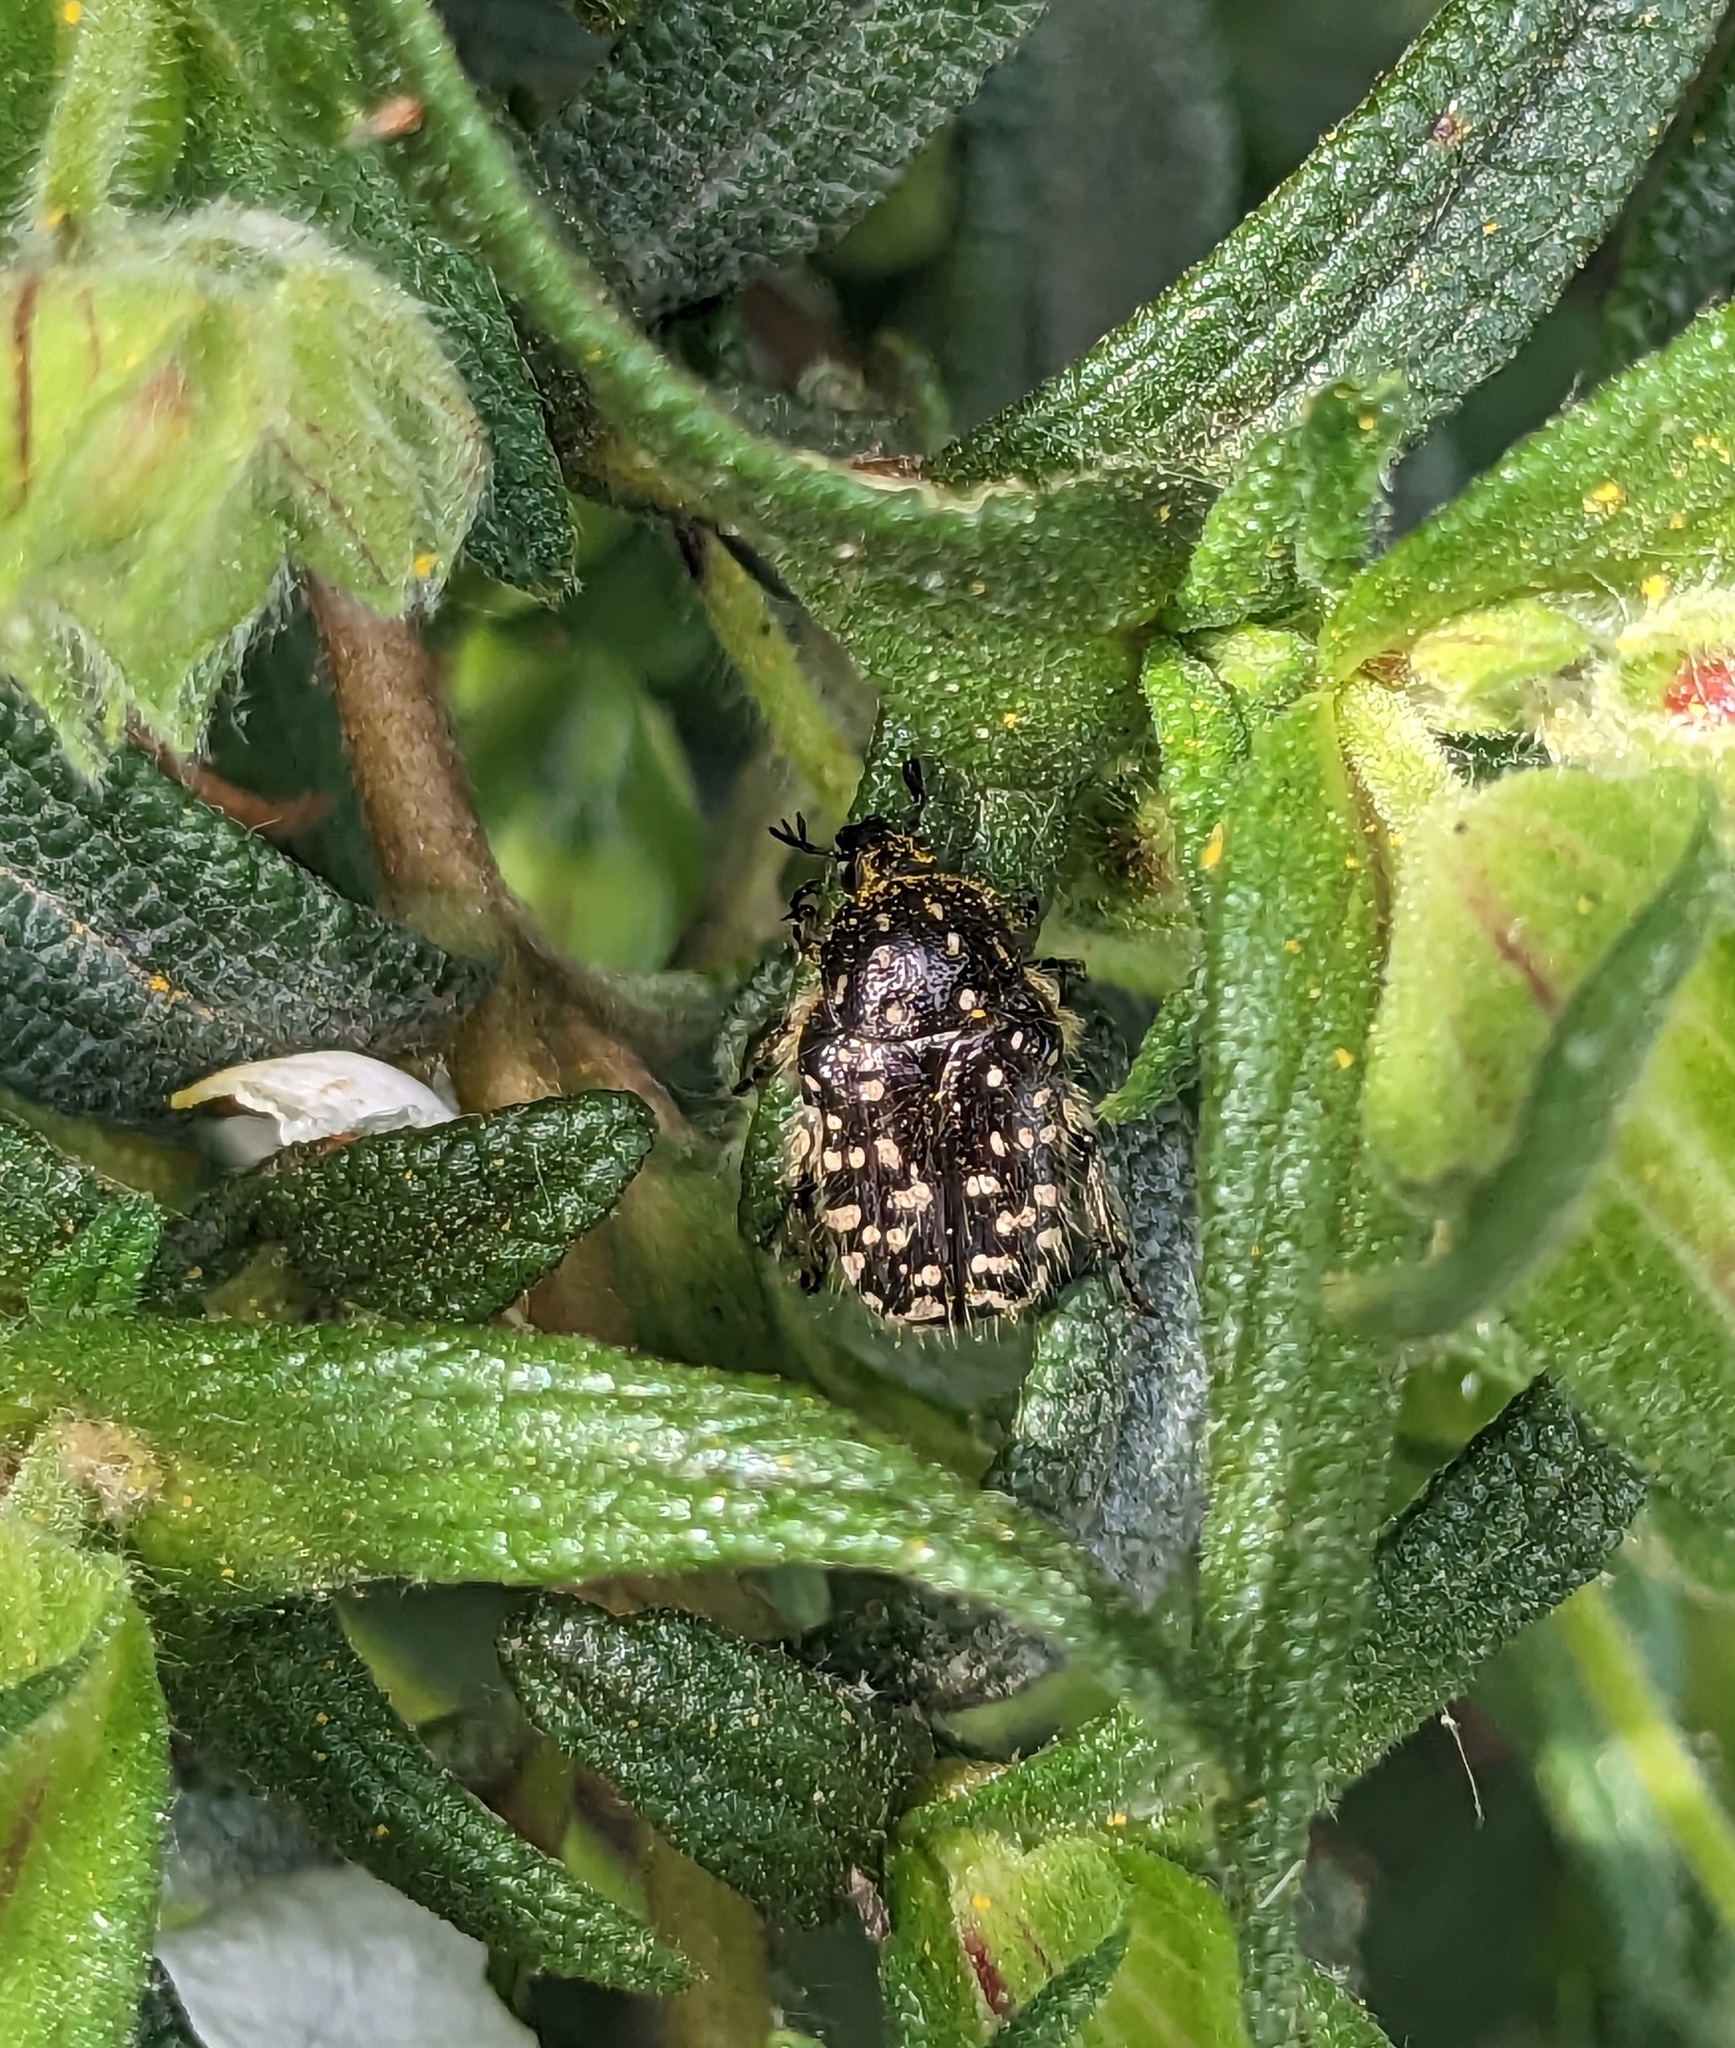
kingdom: Animalia
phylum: Arthropoda
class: Insecta
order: Coleoptera
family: Scarabaeidae
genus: Oxythyrea
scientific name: Oxythyrea funesta
